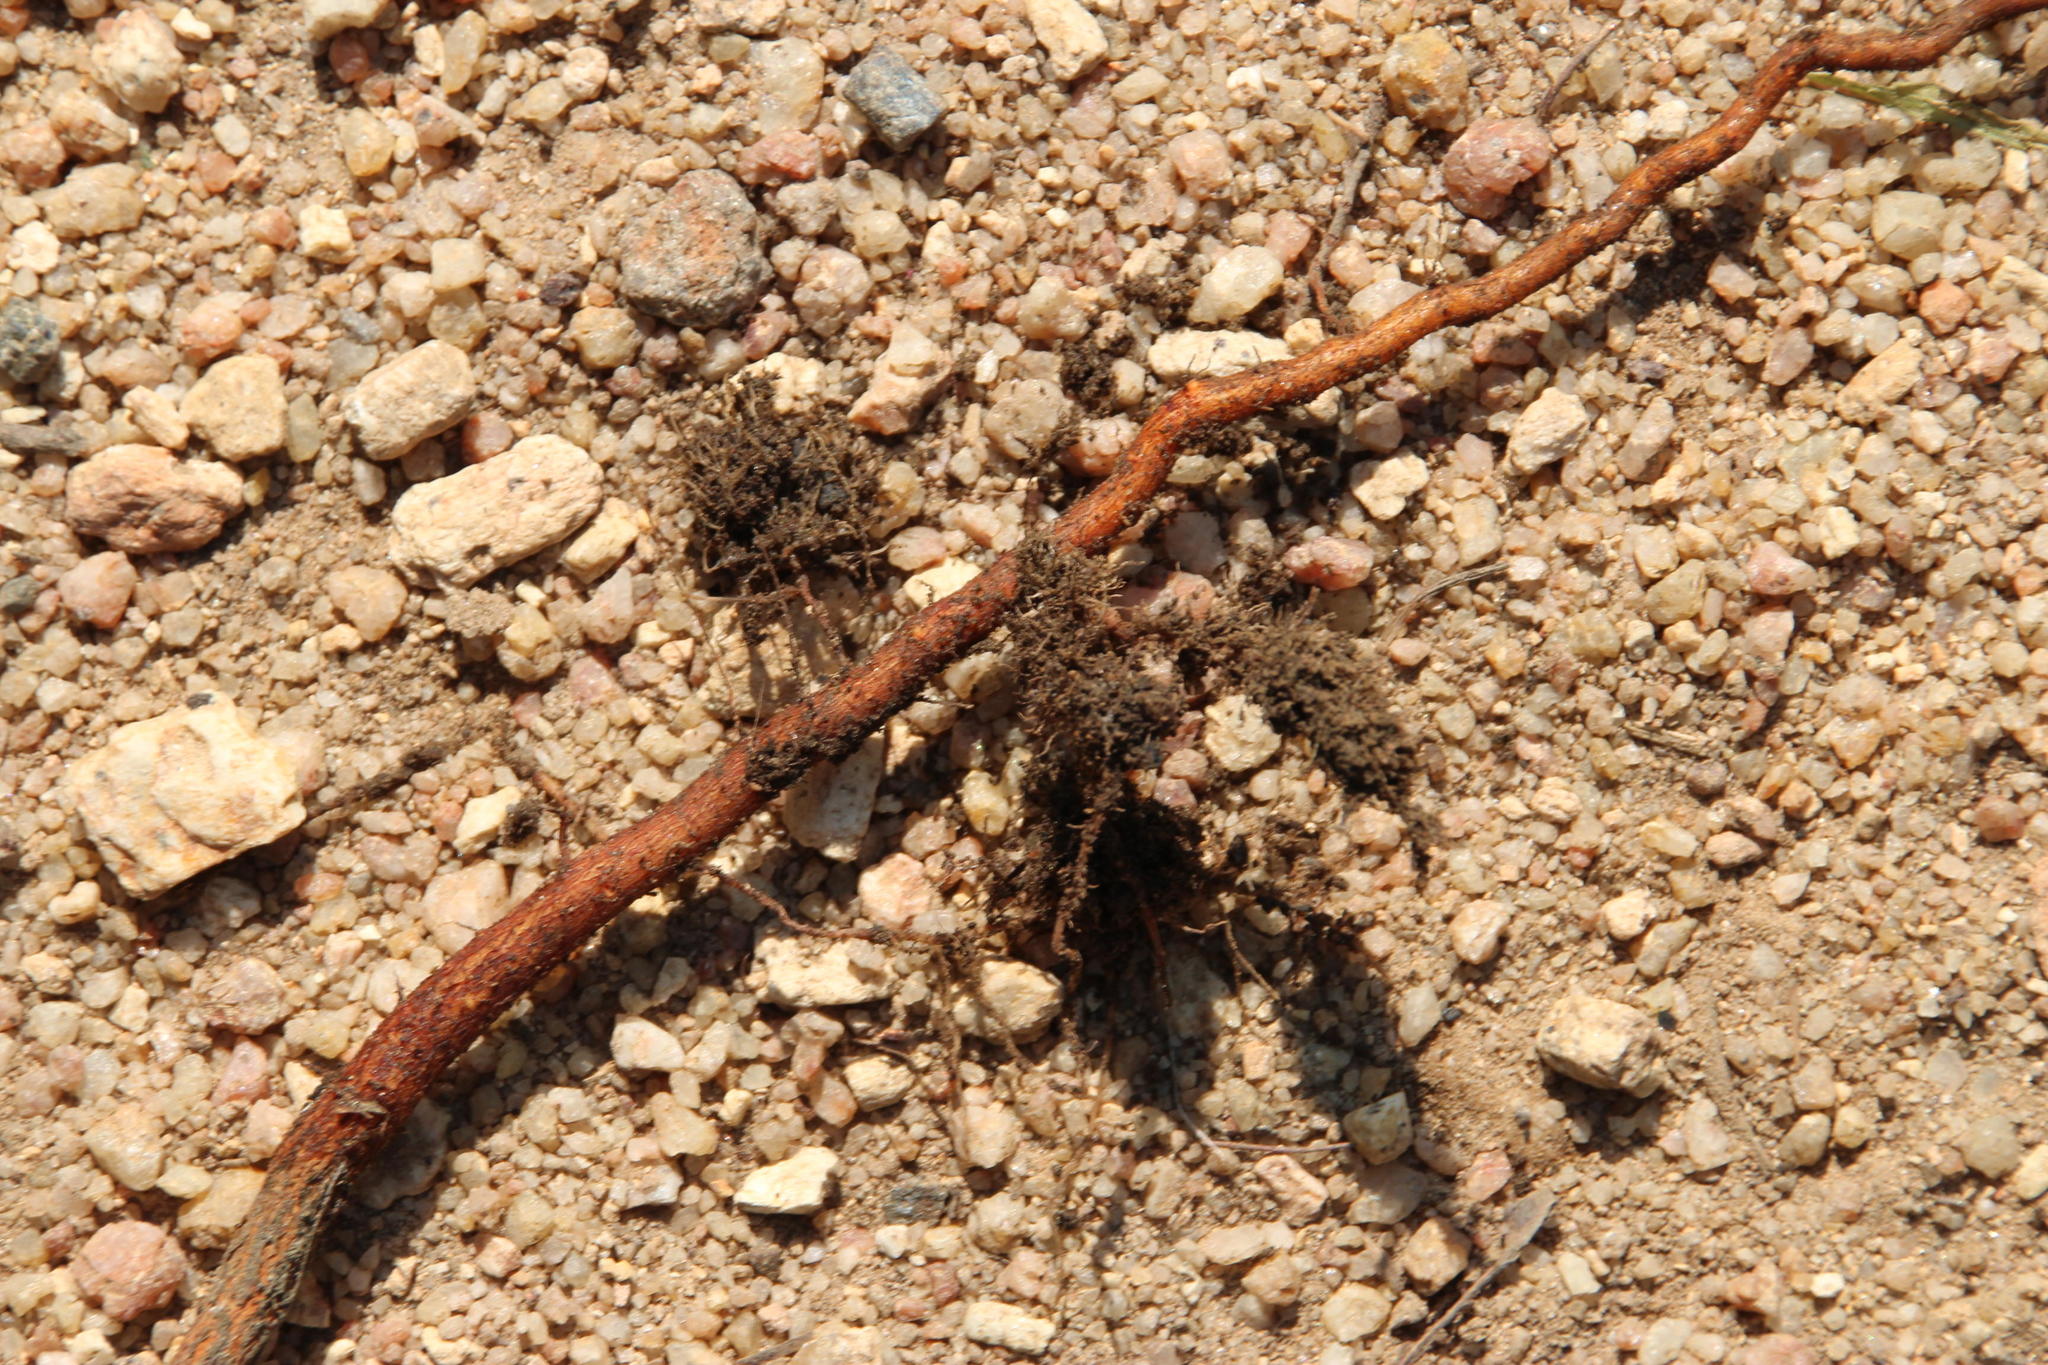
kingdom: Plantae
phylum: Tracheophyta
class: Magnoliopsida
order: Proteales
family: Proteaceae
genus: Hakea
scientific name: Hakea salicifolia
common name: Willow hakea
